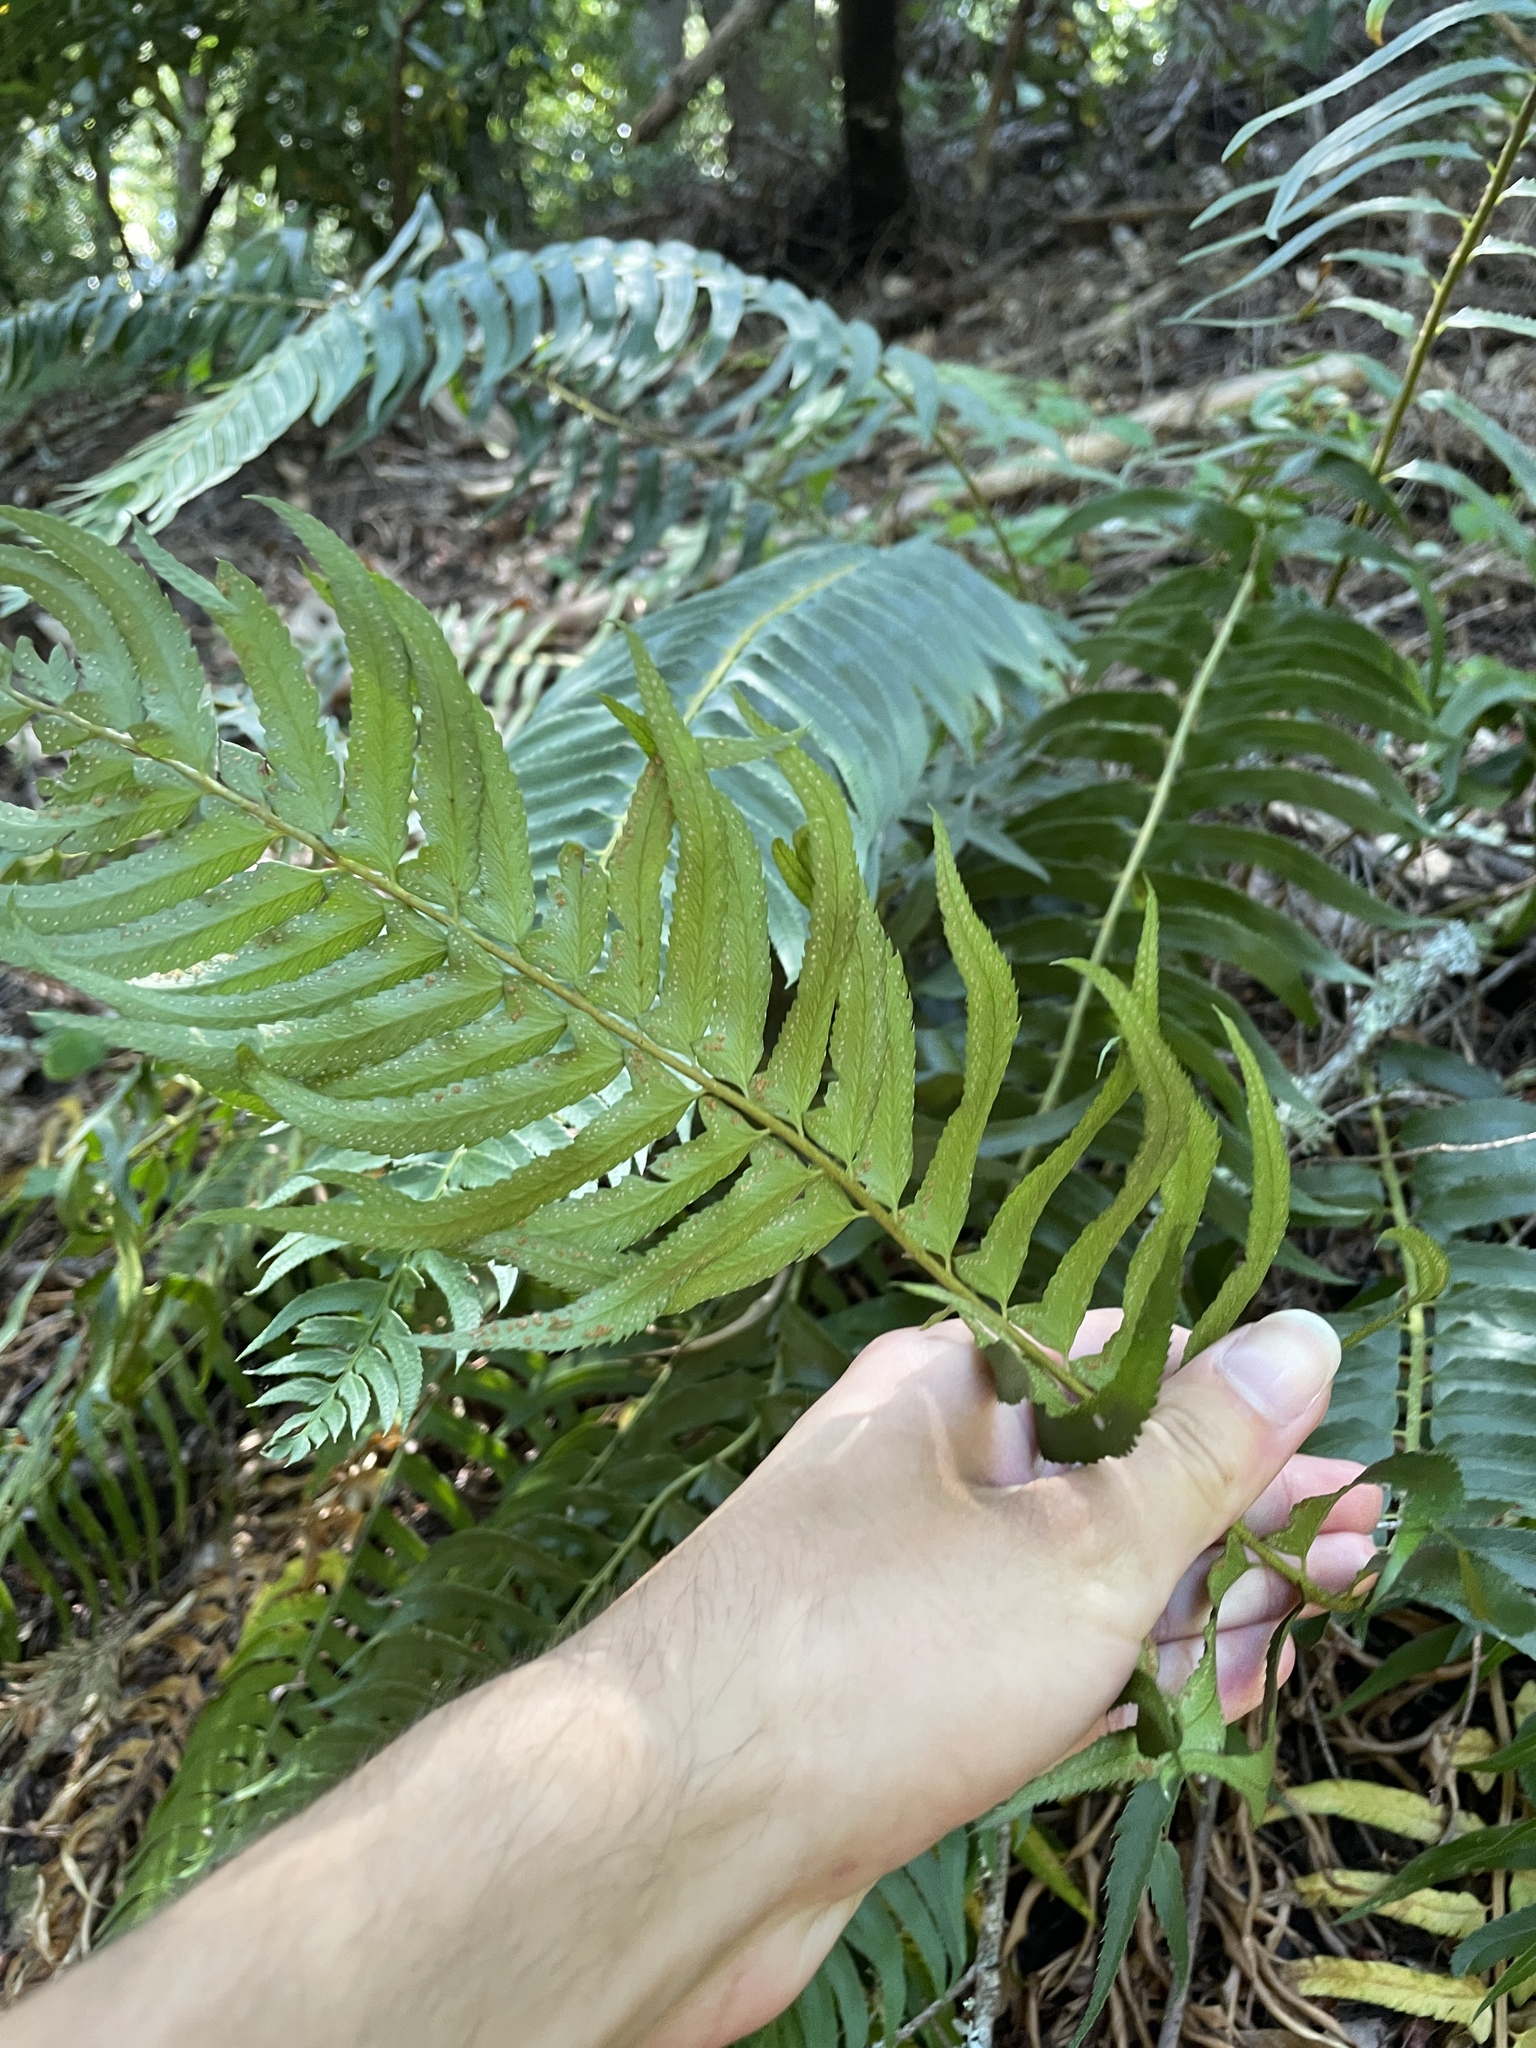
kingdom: Plantae
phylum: Tracheophyta
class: Polypodiopsida
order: Polypodiales
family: Dryopteridaceae
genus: Polystichum
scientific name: Polystichum munitum
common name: Western sword-fern
